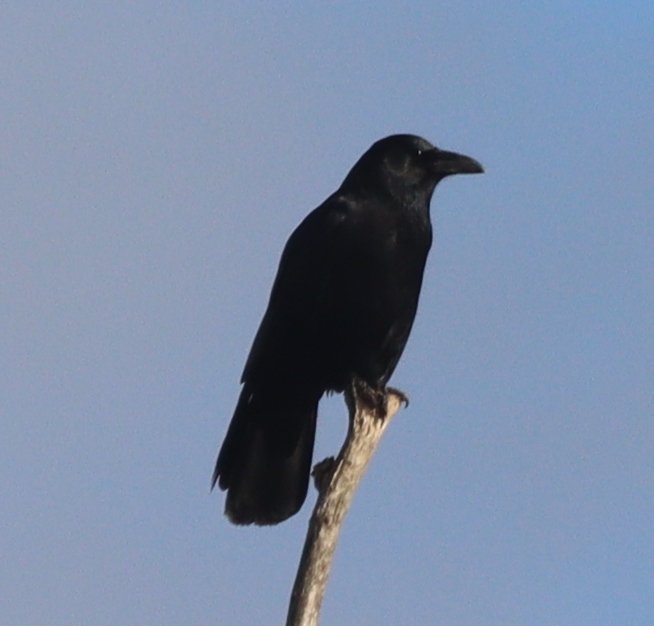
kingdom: Animalia
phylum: Chordata
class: Aves
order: Passeriformes
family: Corvidae
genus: Corvus
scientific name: Corvus corone
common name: Carrion crow
